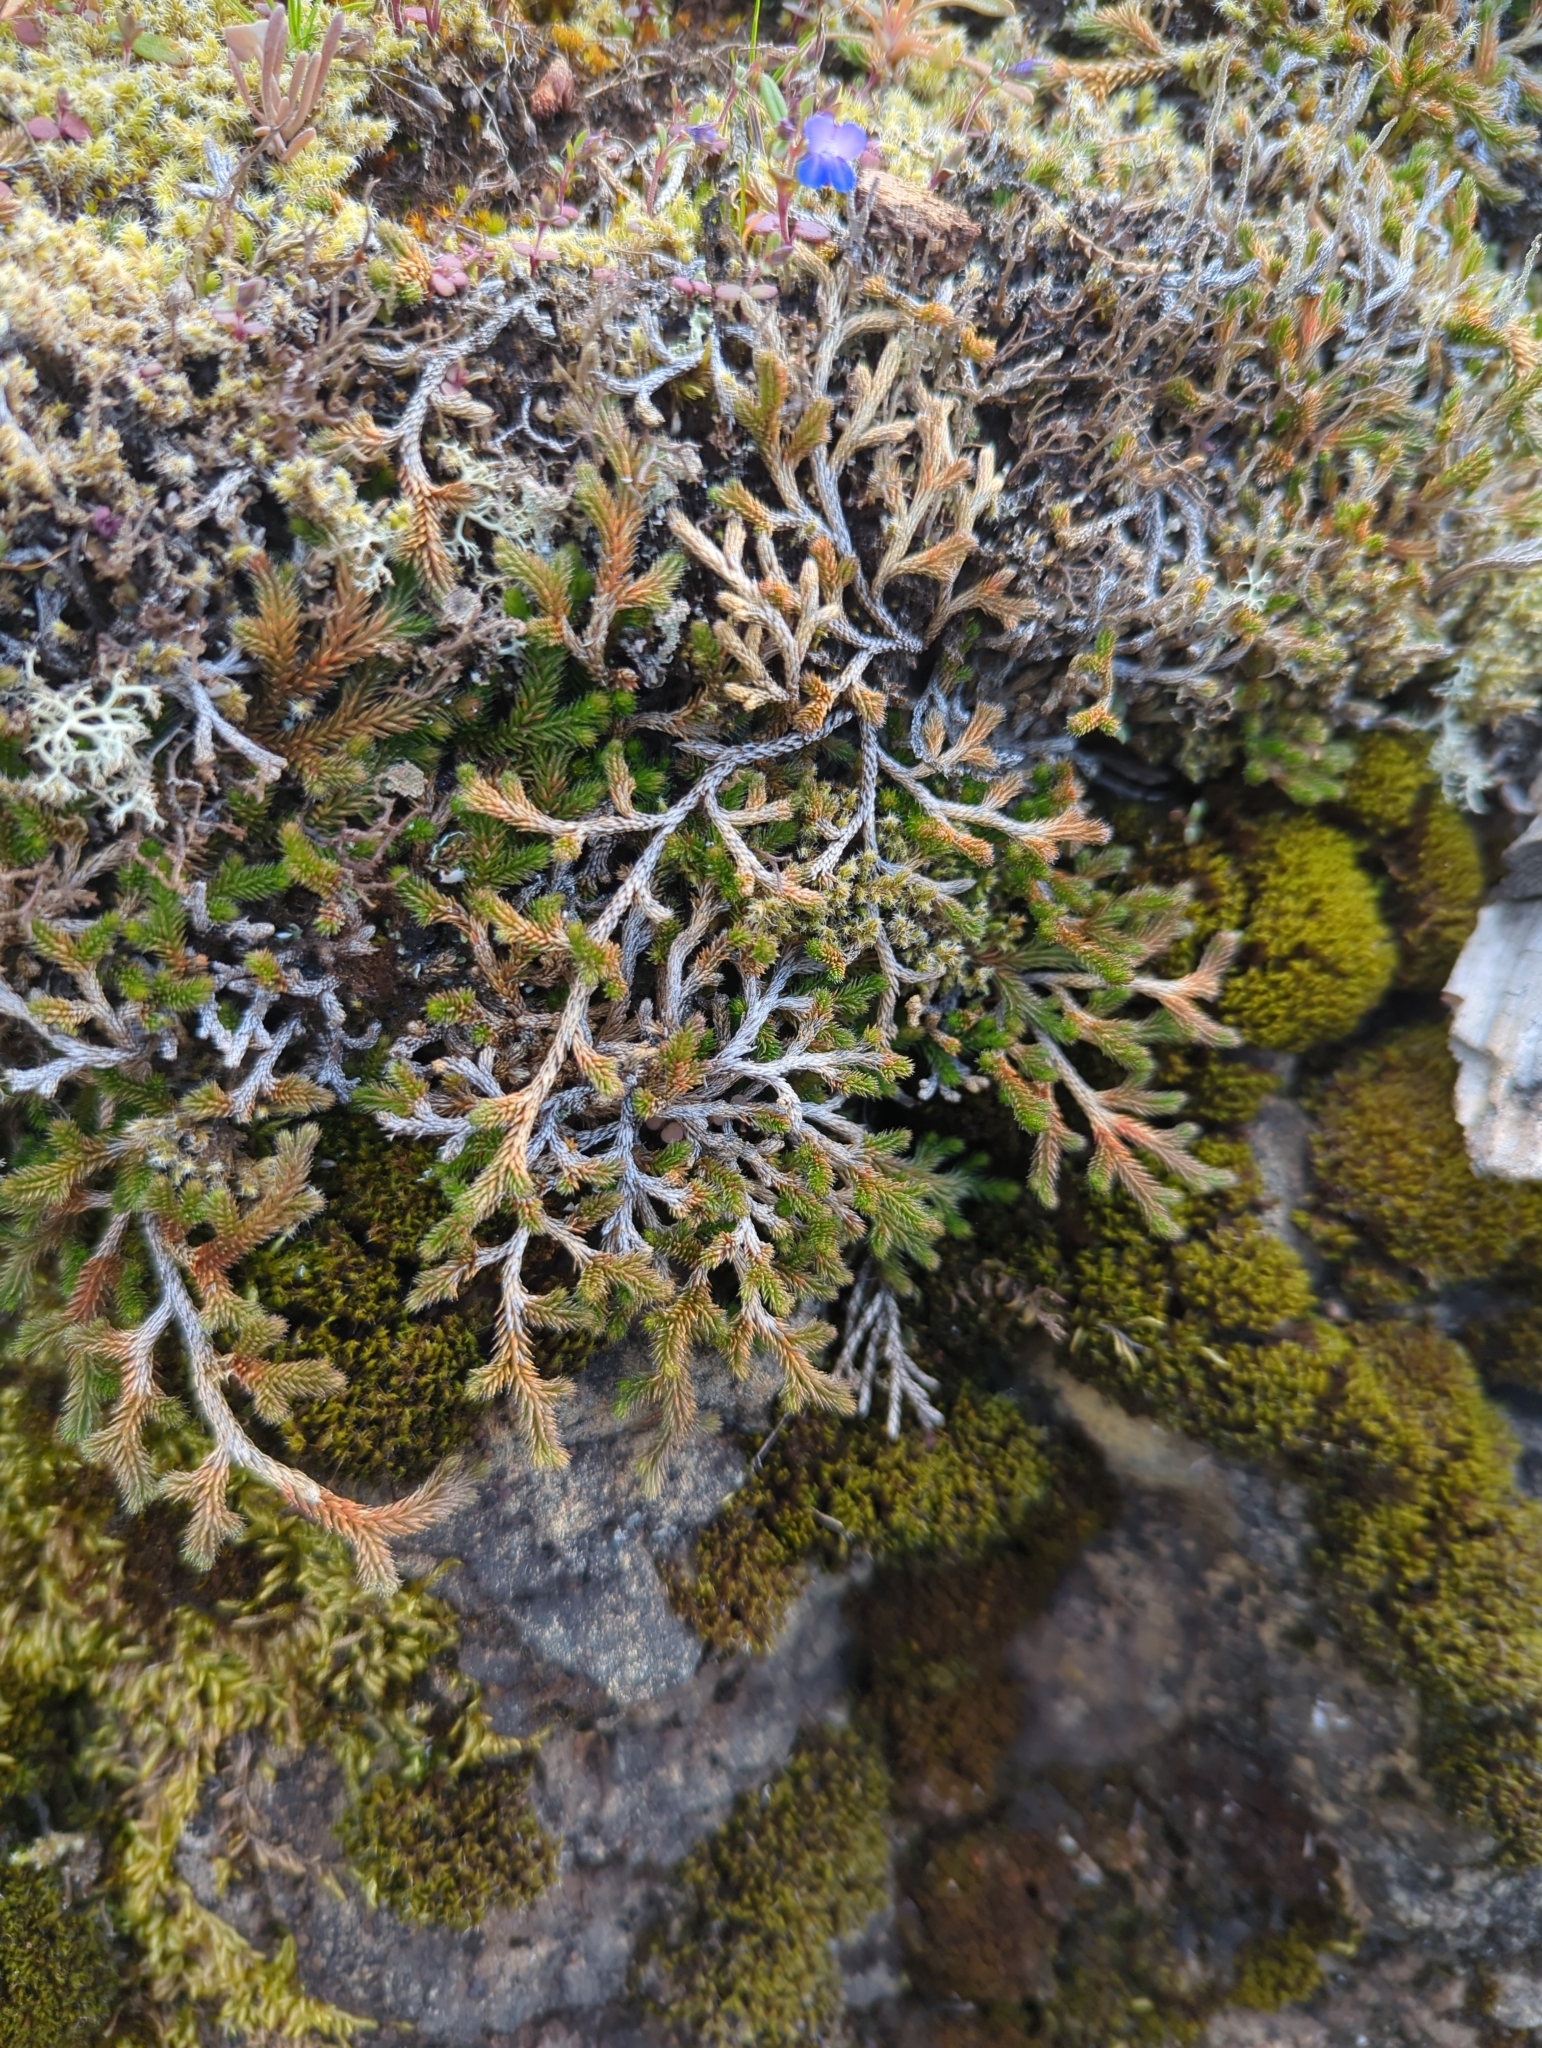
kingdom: Plantae
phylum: Tracheophyta
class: Lycopodiopsida
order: Selaginellales
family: Selaginellaceae
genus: Selaginella
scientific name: Selaginella wallacei
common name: Wallace's selaginella
